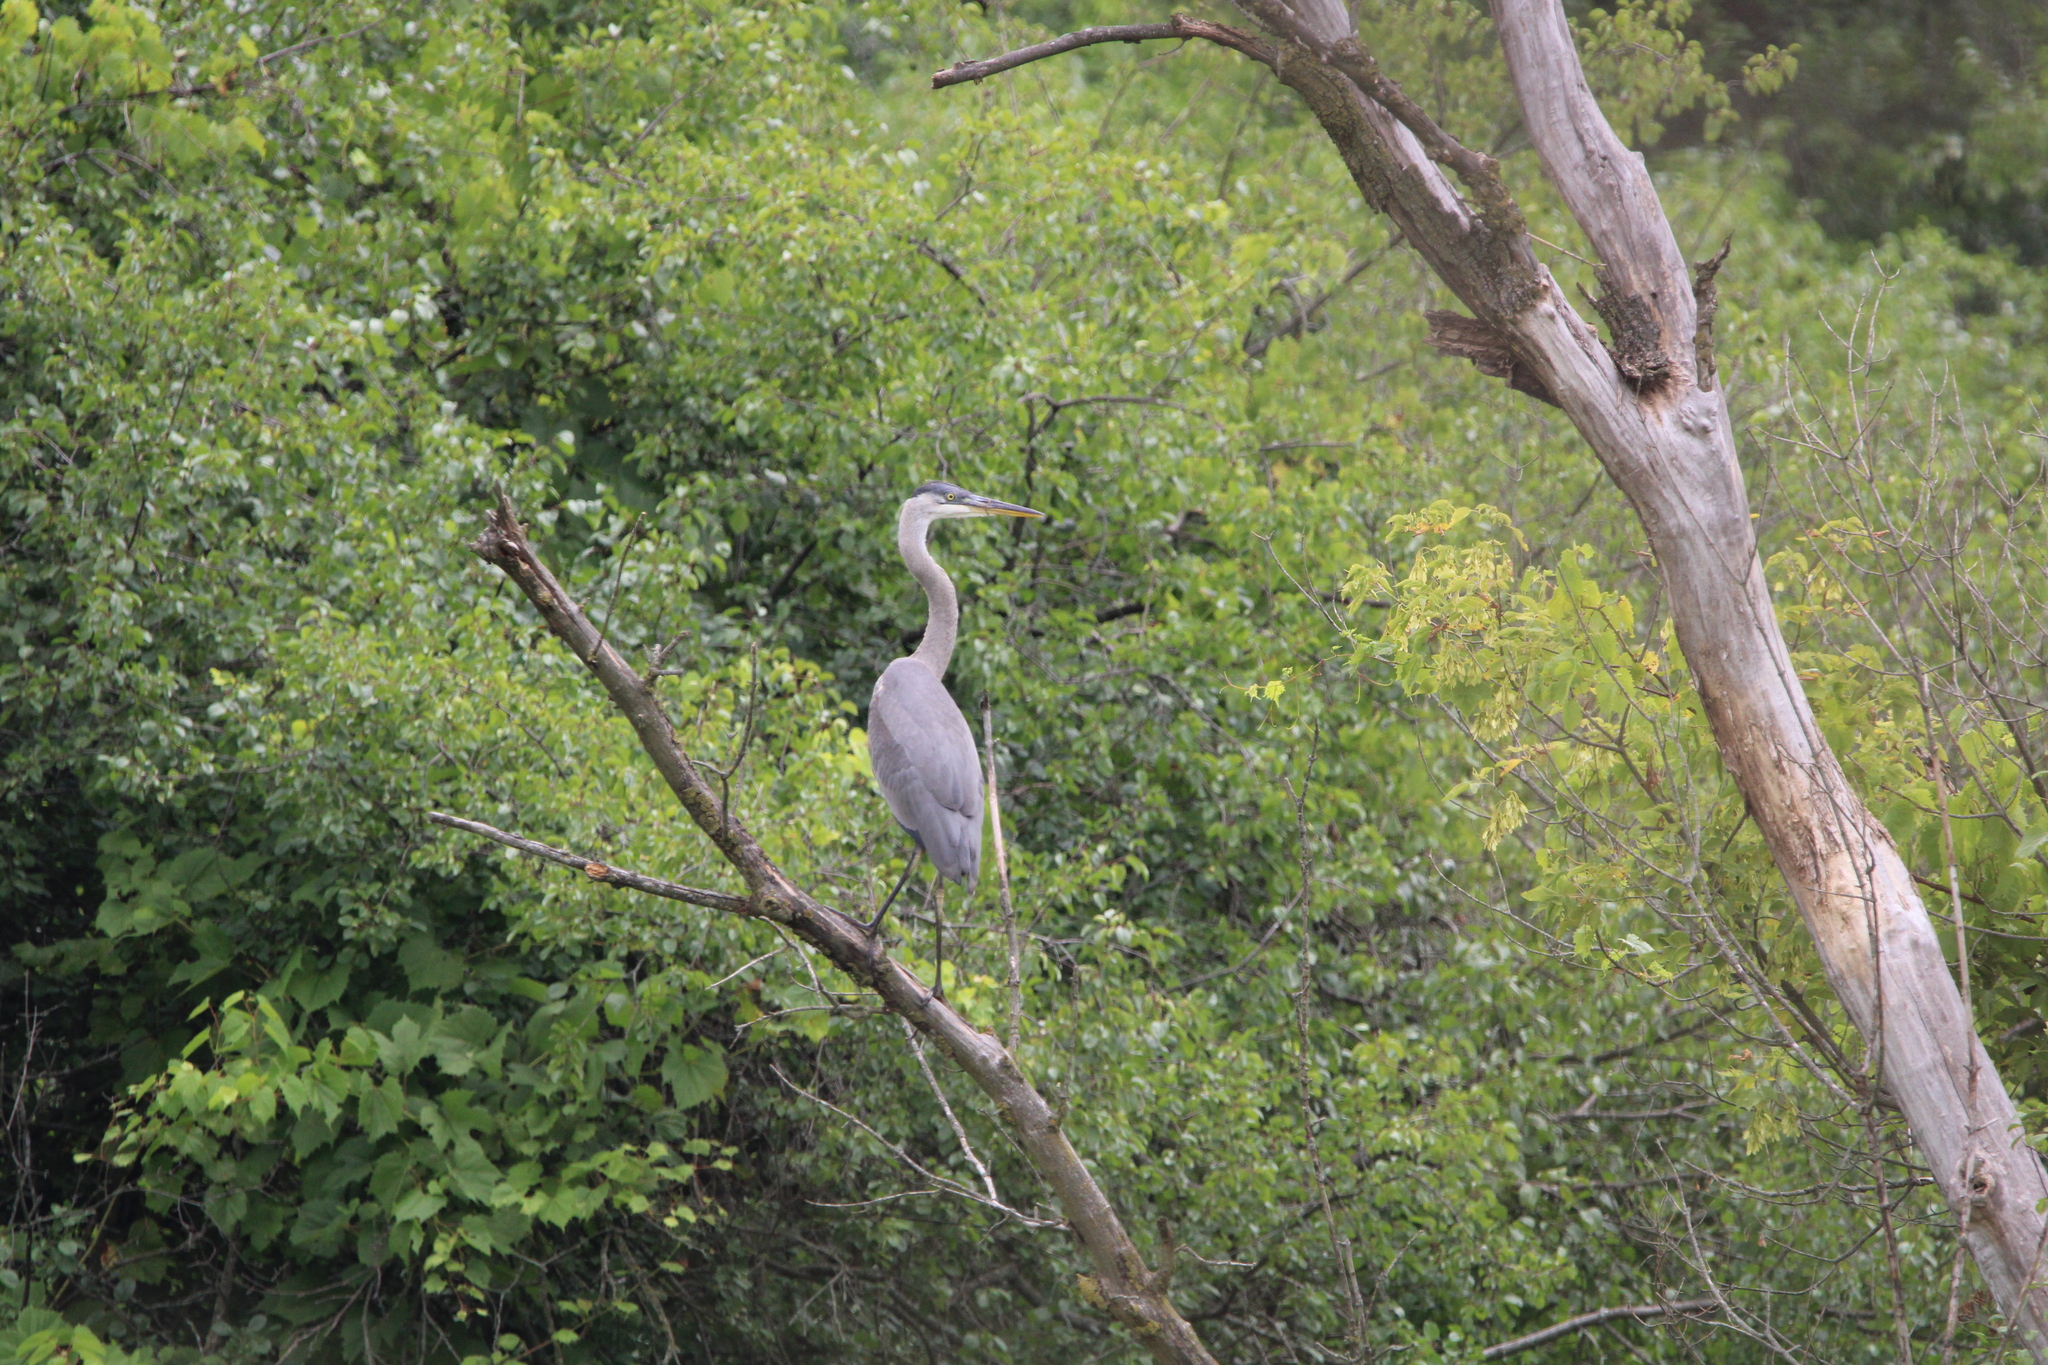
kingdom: Animalia
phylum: Chordata
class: Aves
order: Pelecaniformes
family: Ardeidae
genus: Ardea
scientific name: Ardea herodias
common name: Great blue heron
